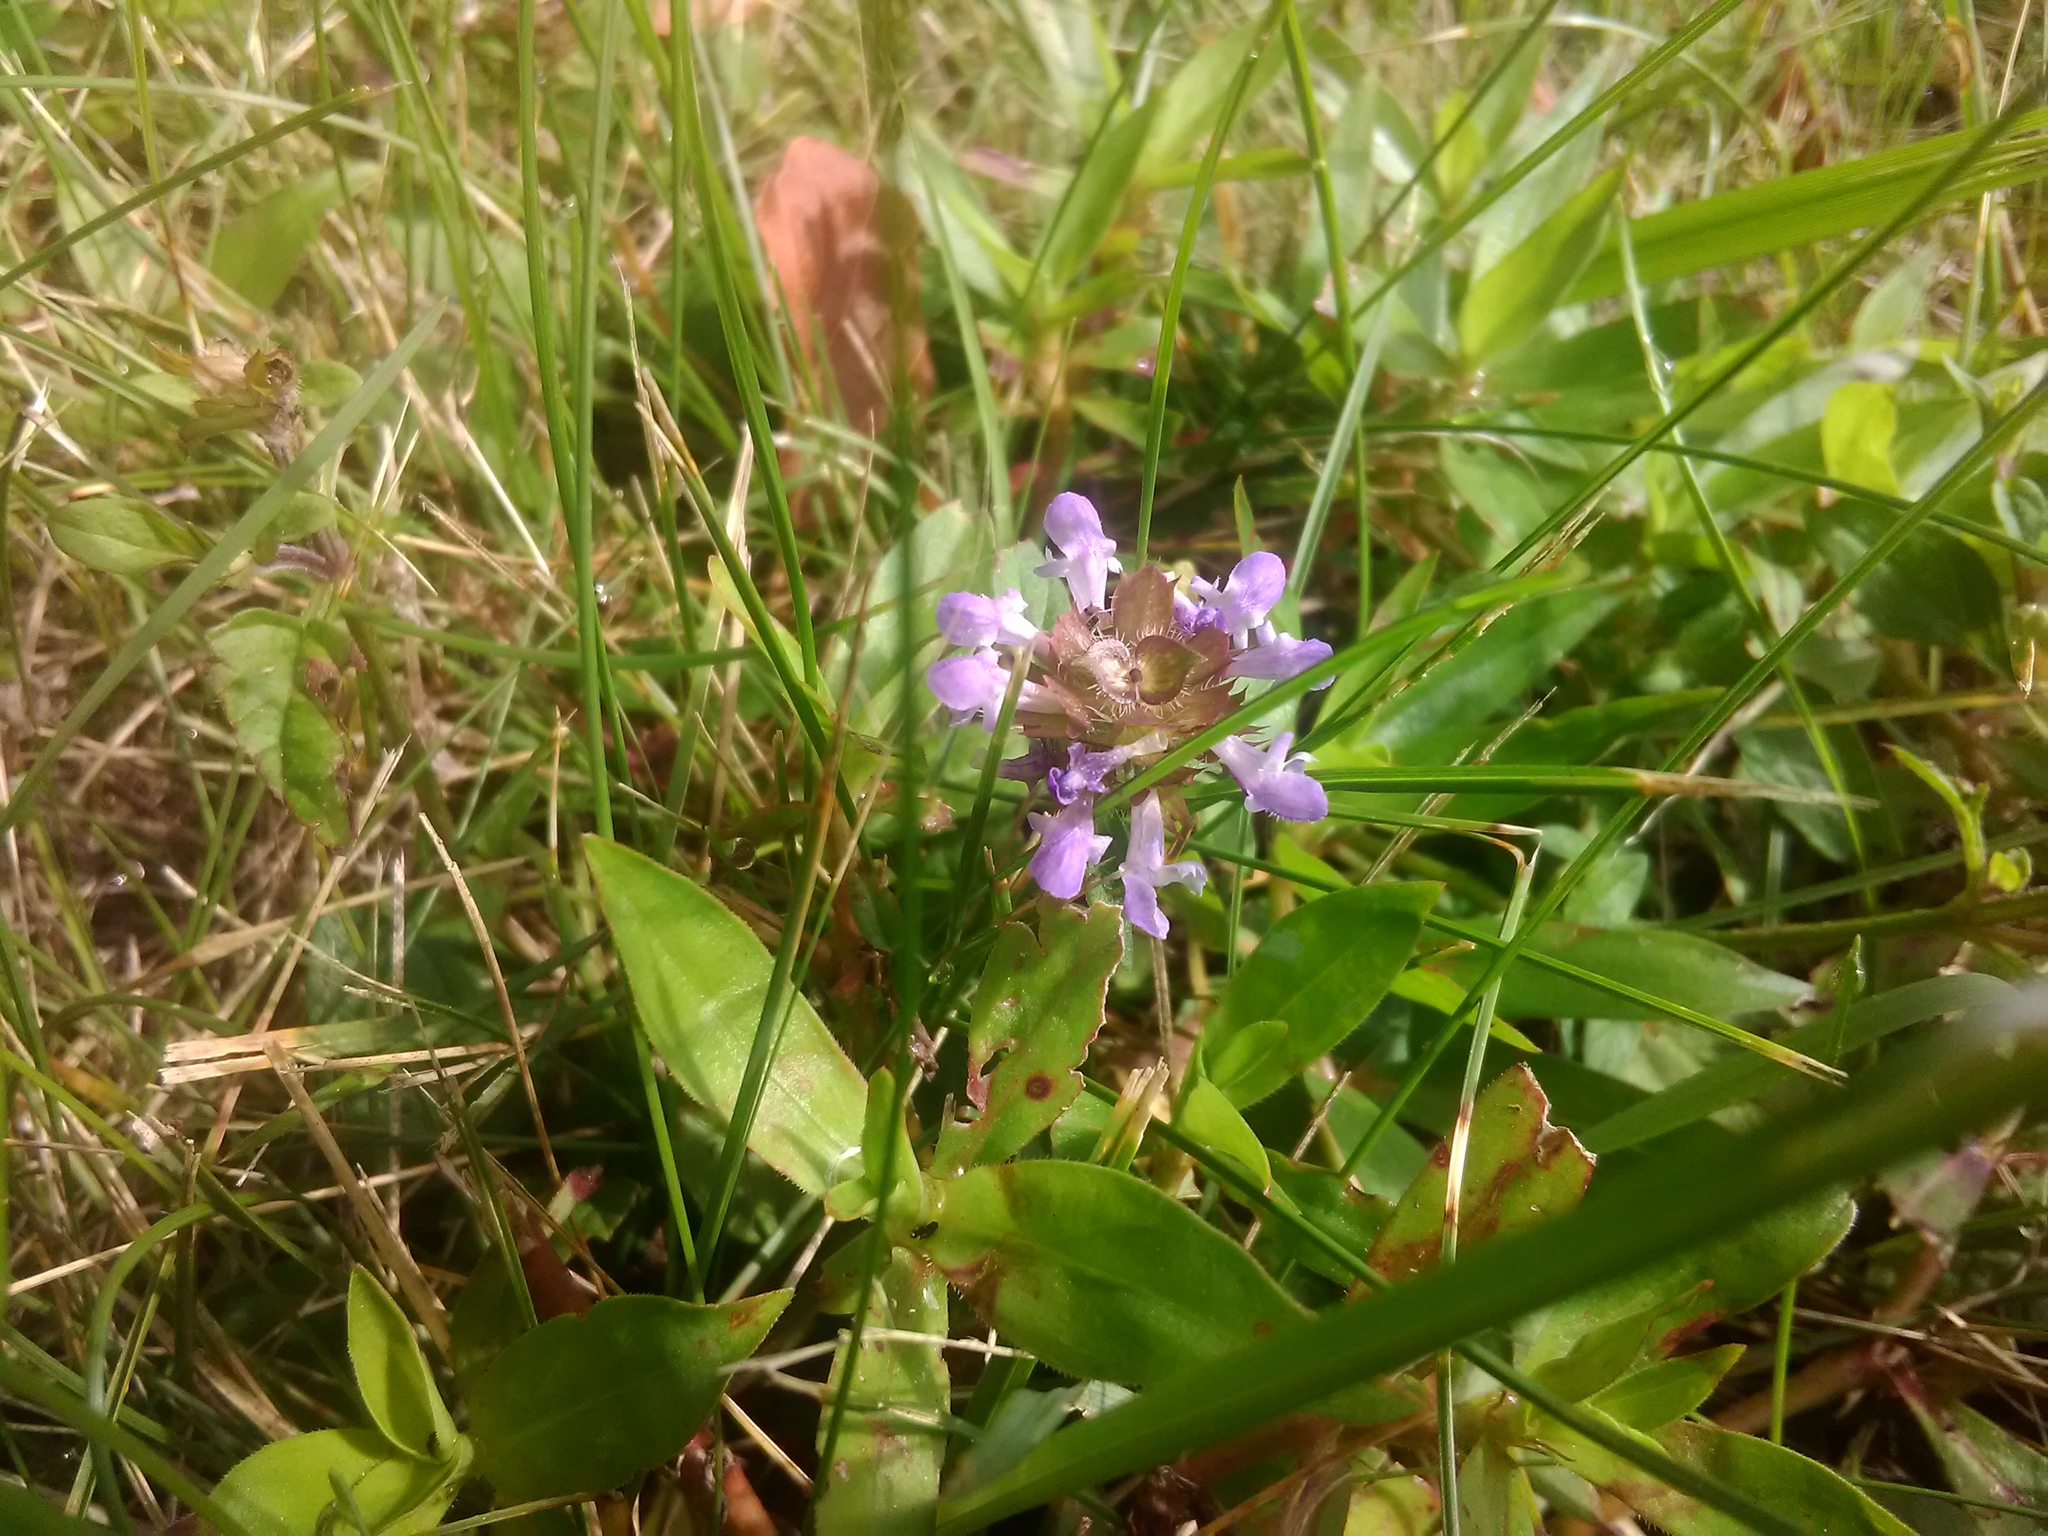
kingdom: Plantae
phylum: Tracheophyta
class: Magnoliopsida
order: Lamiales
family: Lamiaceae
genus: Prunella
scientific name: Prunella vulgaris
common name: Heal-all
